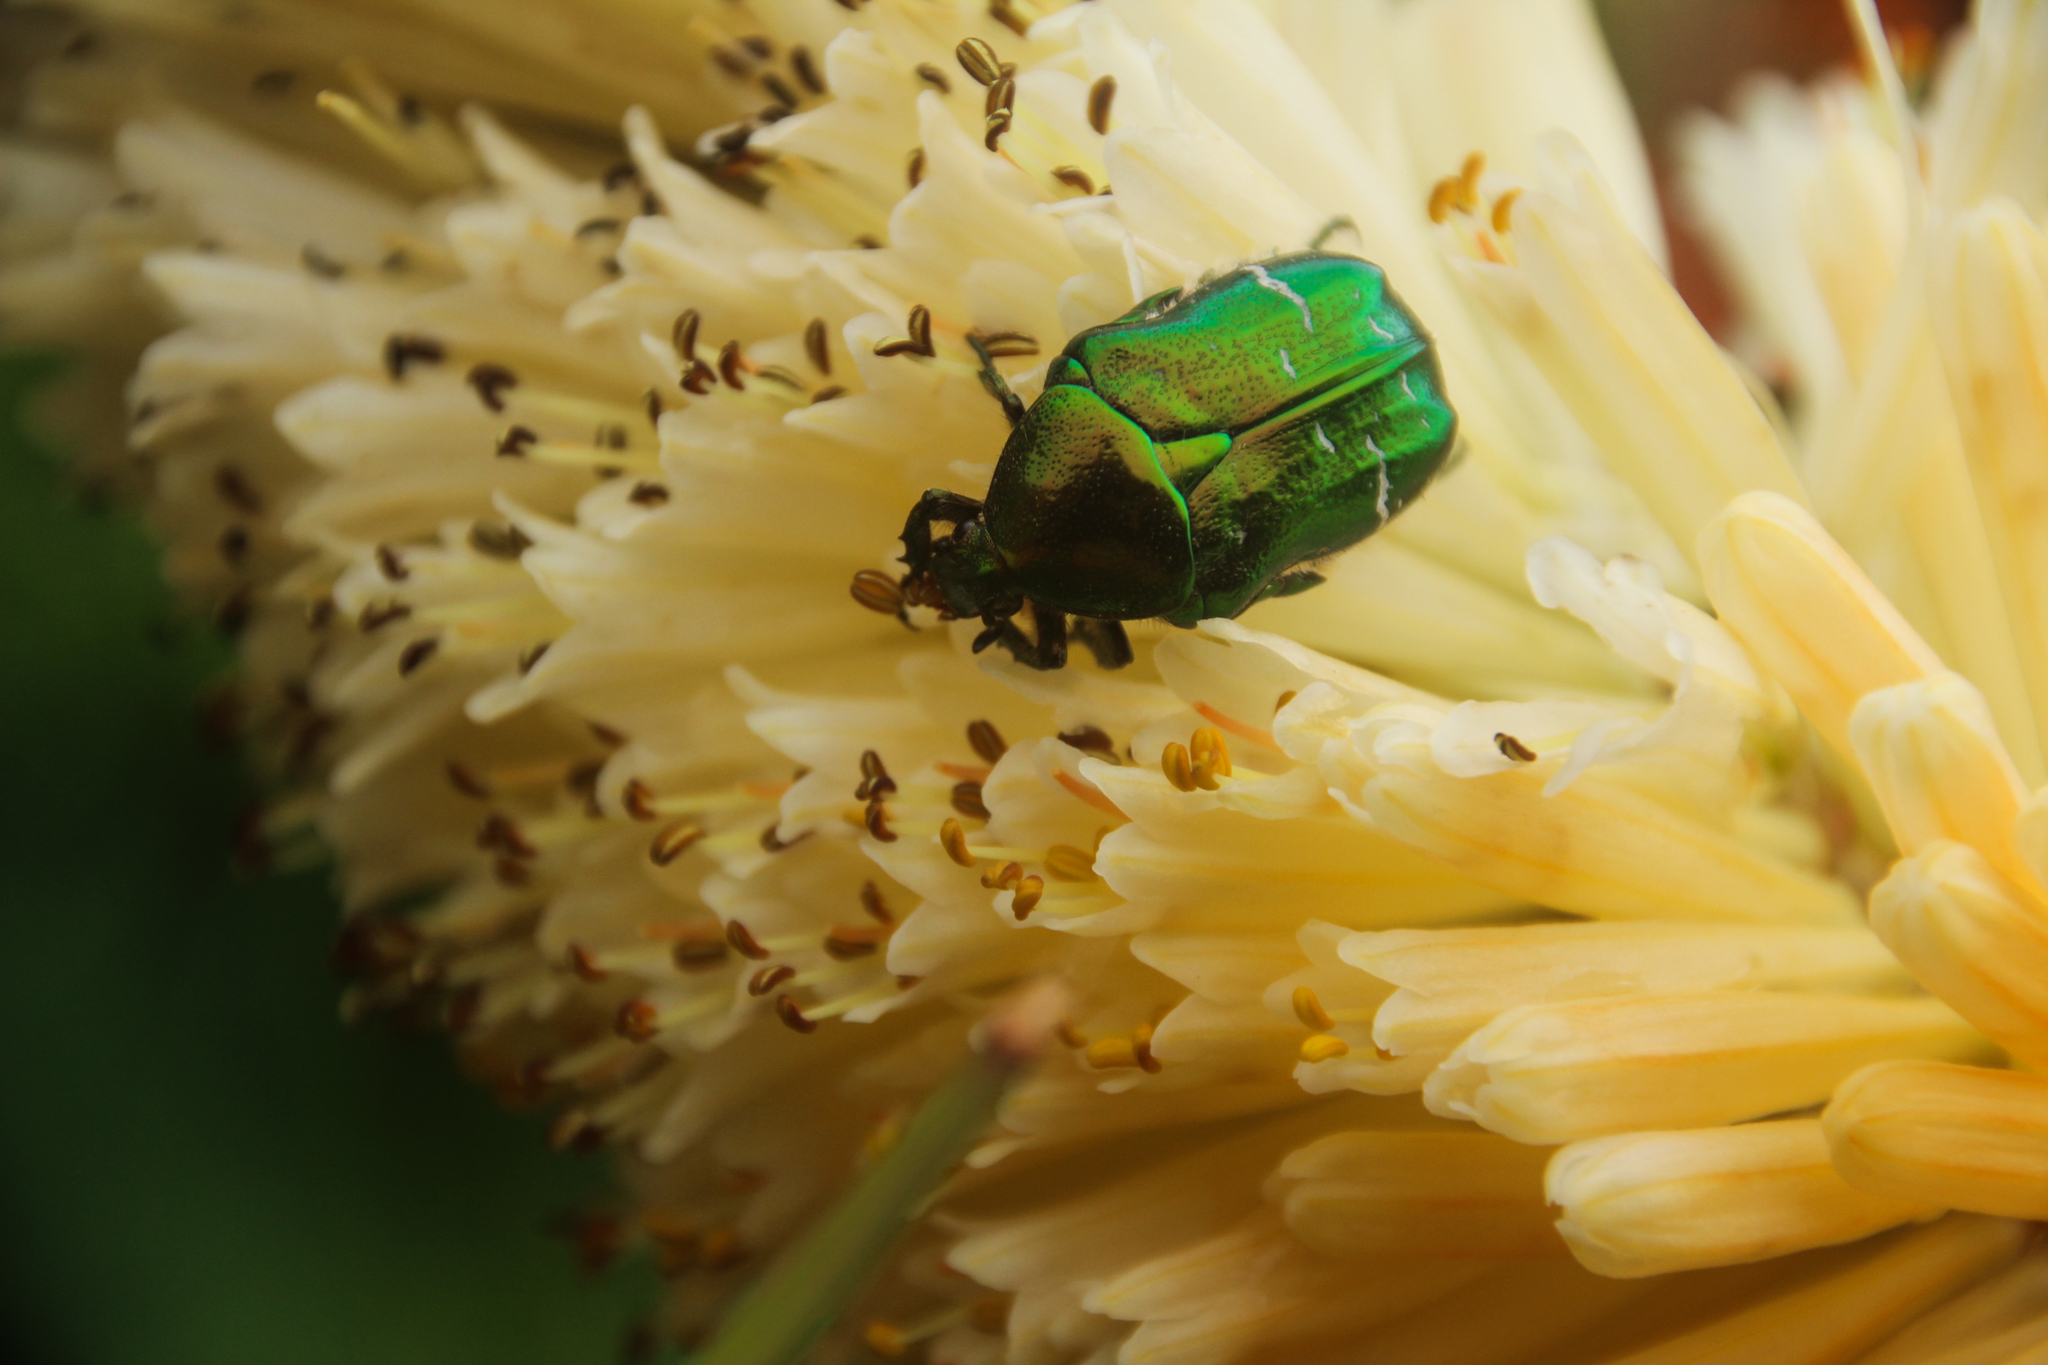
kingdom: Animalia
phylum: Arthropoda
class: Insecta
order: Coleoptera
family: Scarabaeidae
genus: Cetonia
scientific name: Cetonia aurata
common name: Rose chafer
